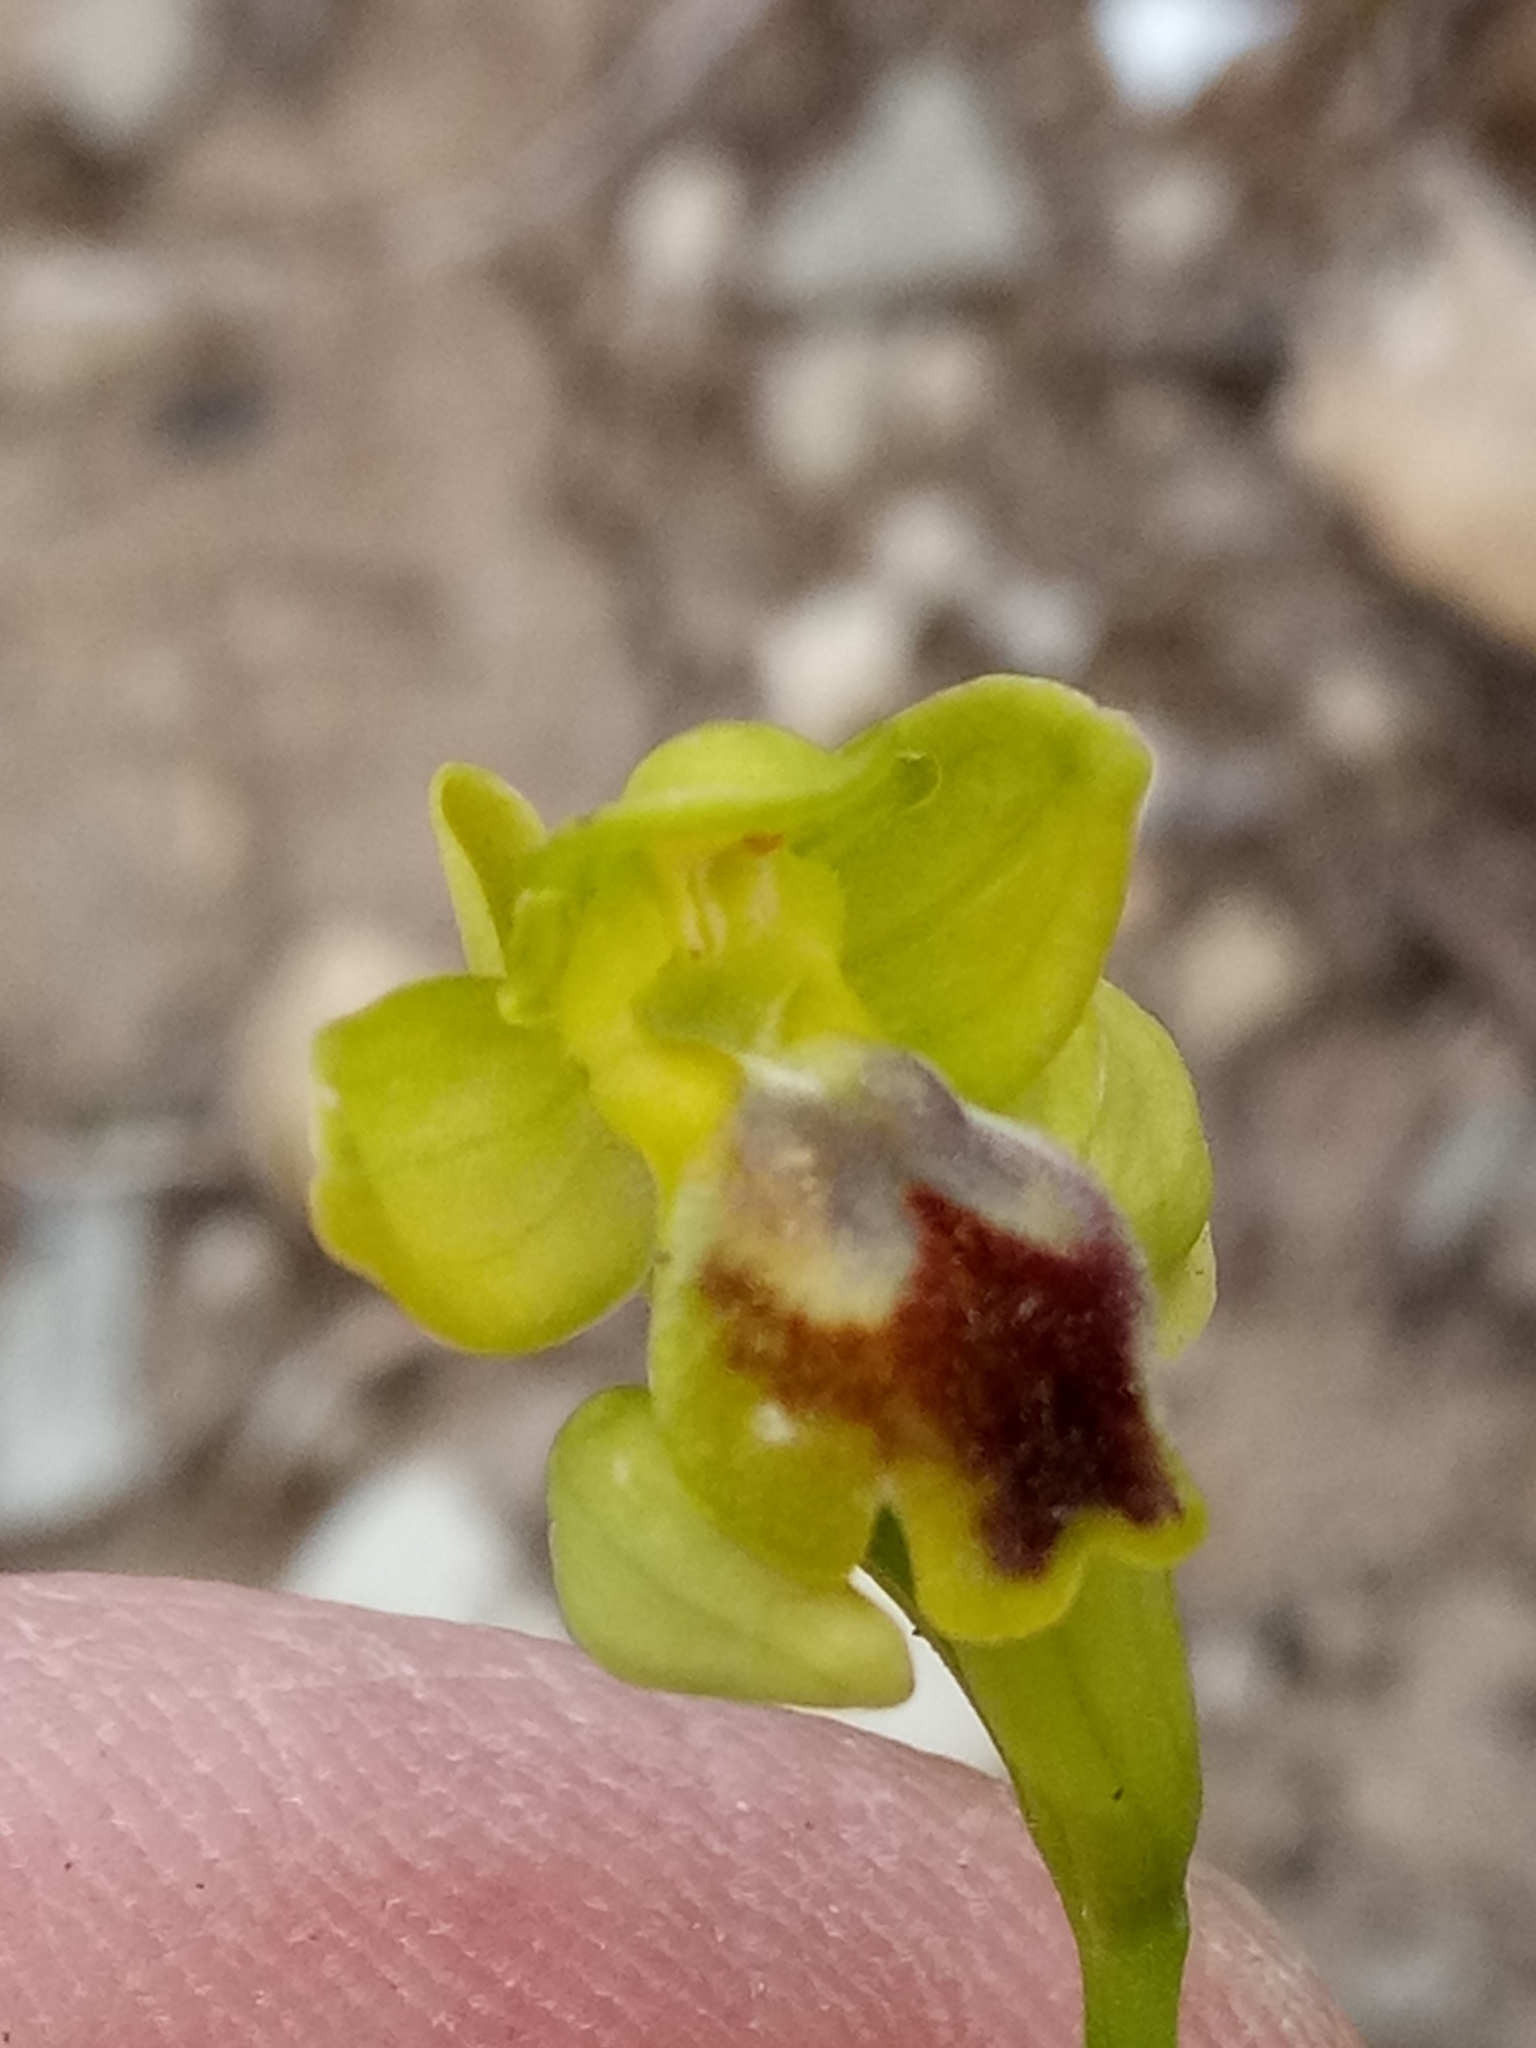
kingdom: Plantae
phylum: Tracheophyta
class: Liliopsida
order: Asparagales
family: Orchidaceae
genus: Ophrys
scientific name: Ophrys battandieri
